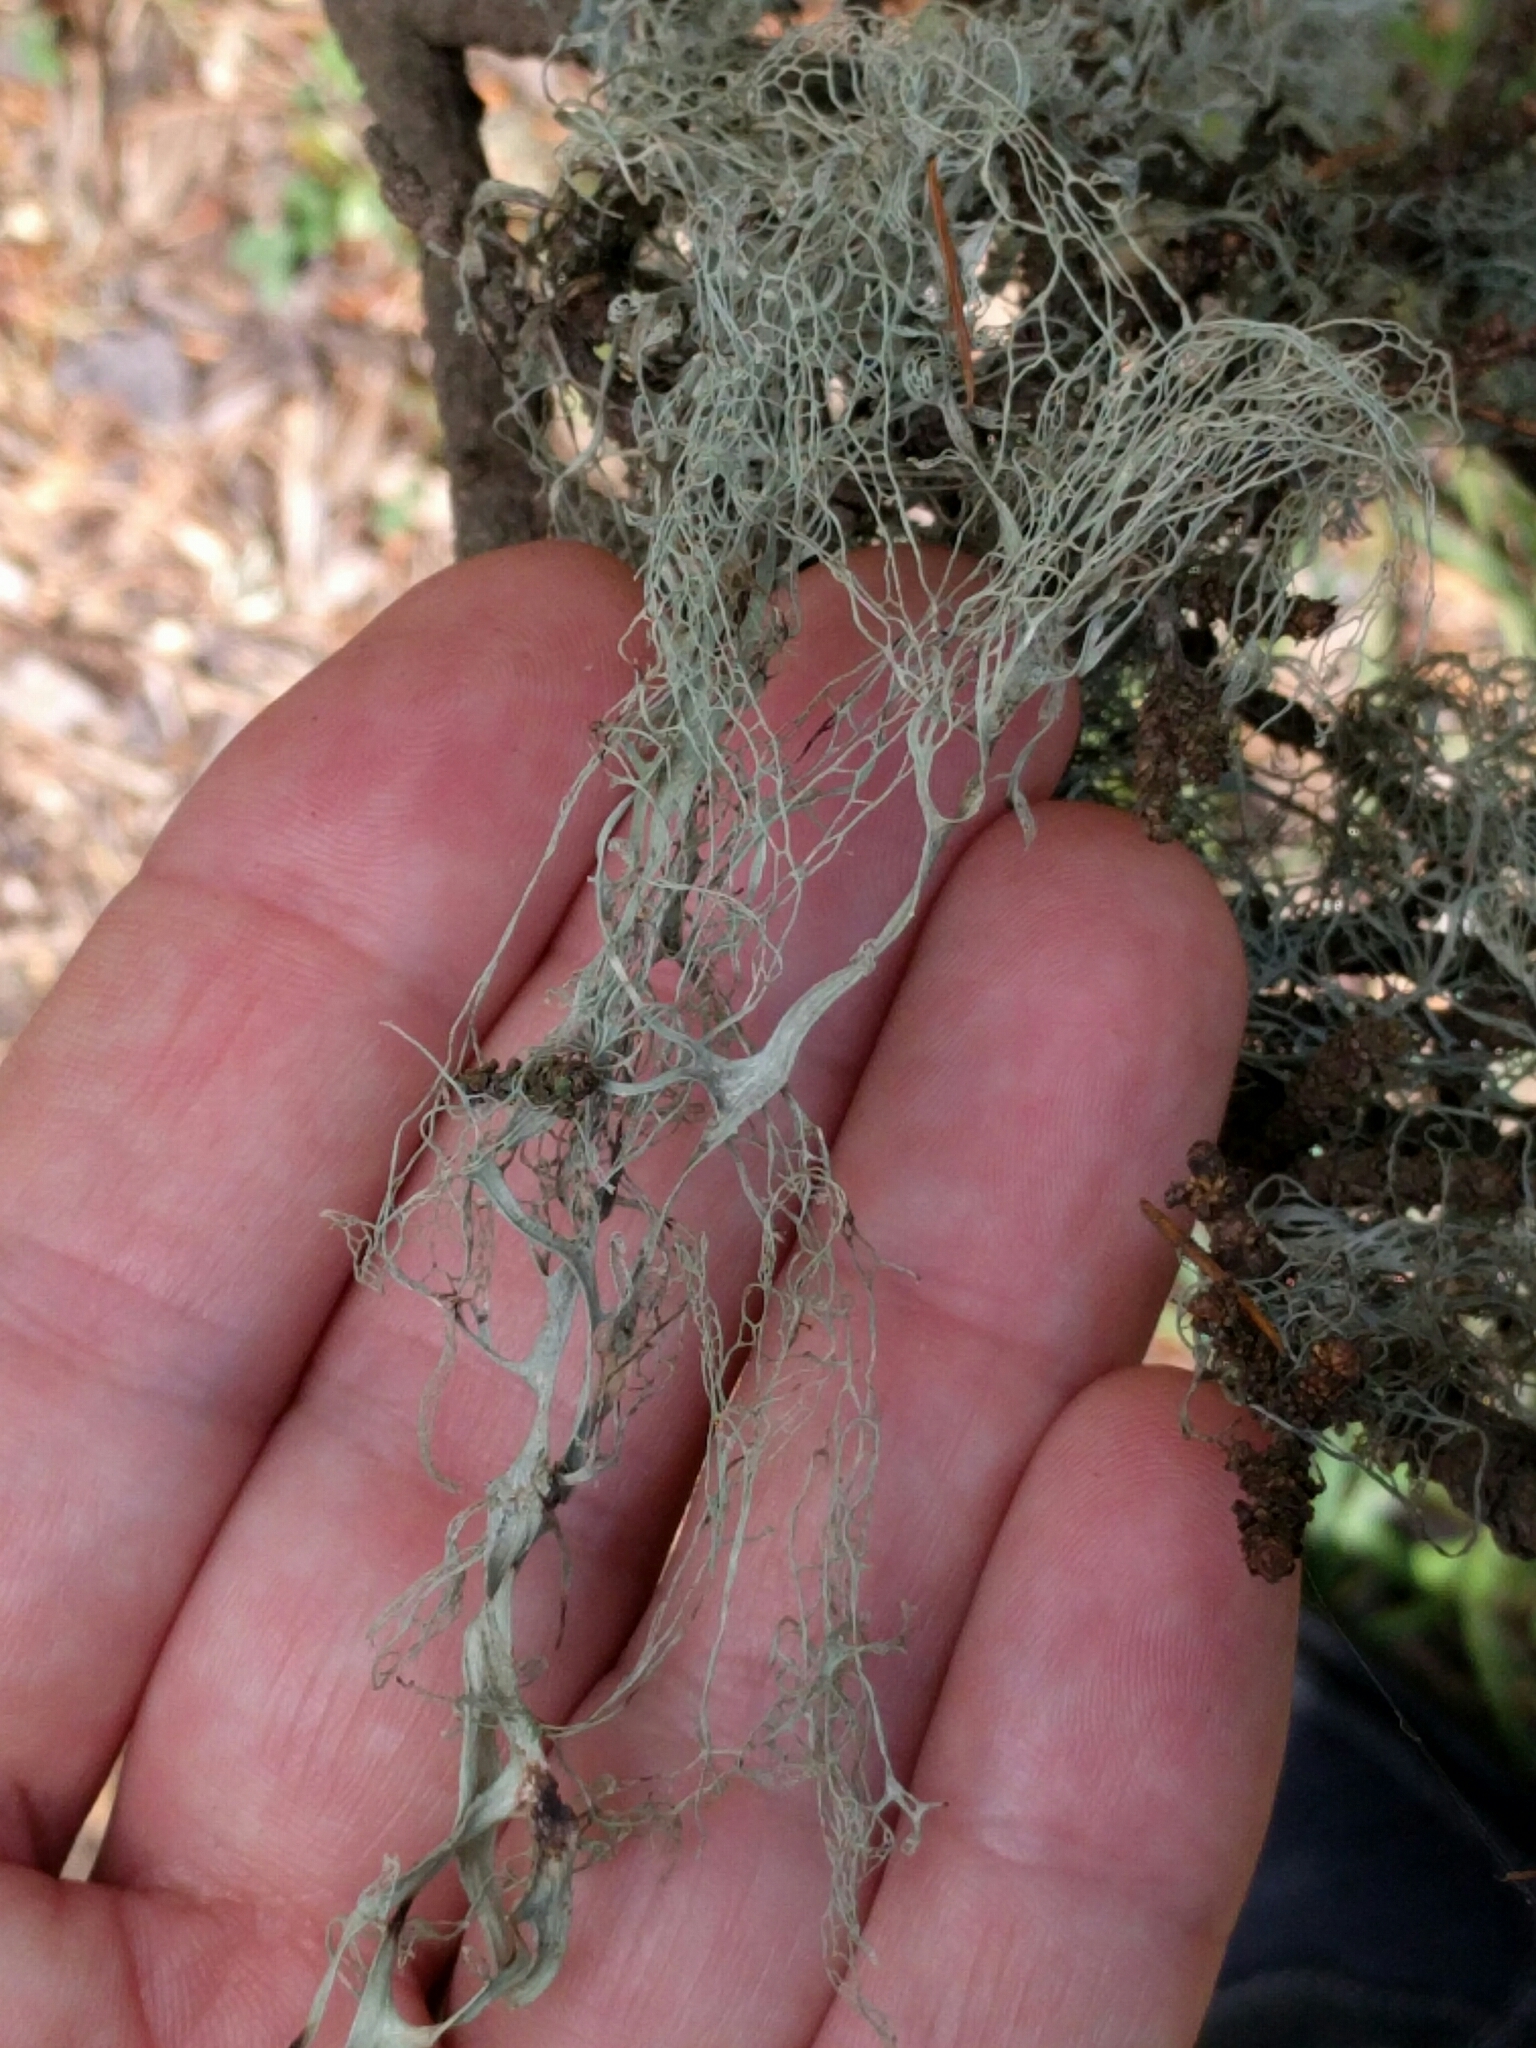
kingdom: Fungi
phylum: Ascomycota
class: Lecanoromycetes
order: Lecanorales
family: Ramalinaceae
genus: Ramalina
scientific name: Ramalina menziesii
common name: Lace lichen
